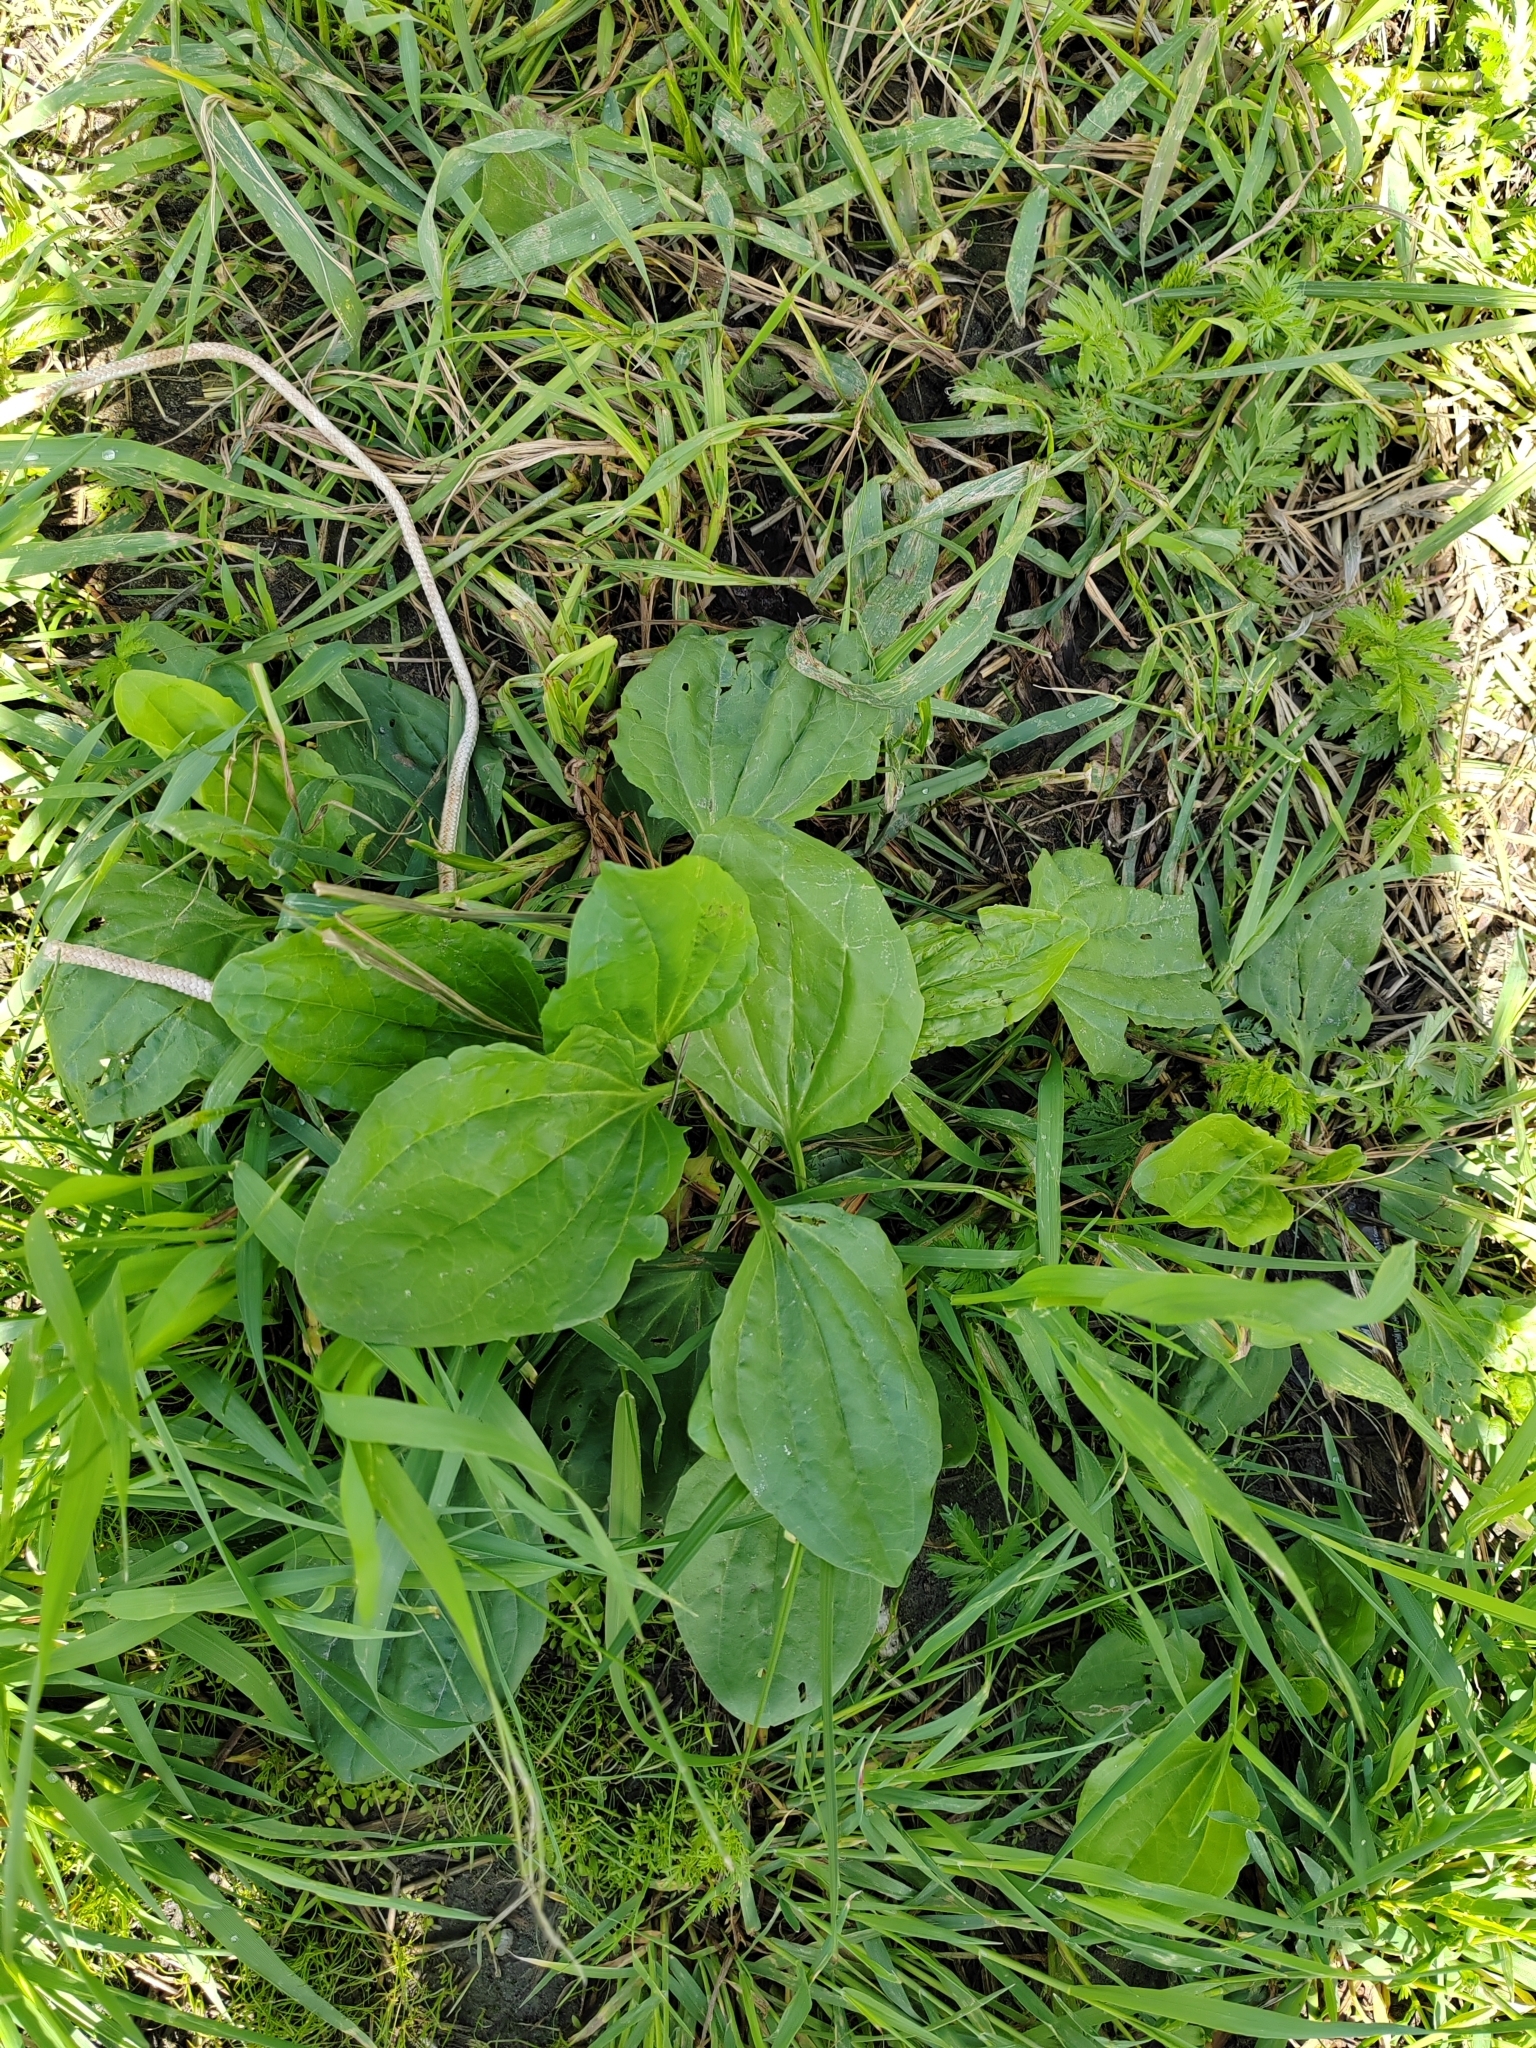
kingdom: Plantae
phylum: Tracheophyta
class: Magnoliopsida
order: Lamiales
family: Plantaginaceae
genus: Plantago
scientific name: Plantago major
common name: Common plantain
